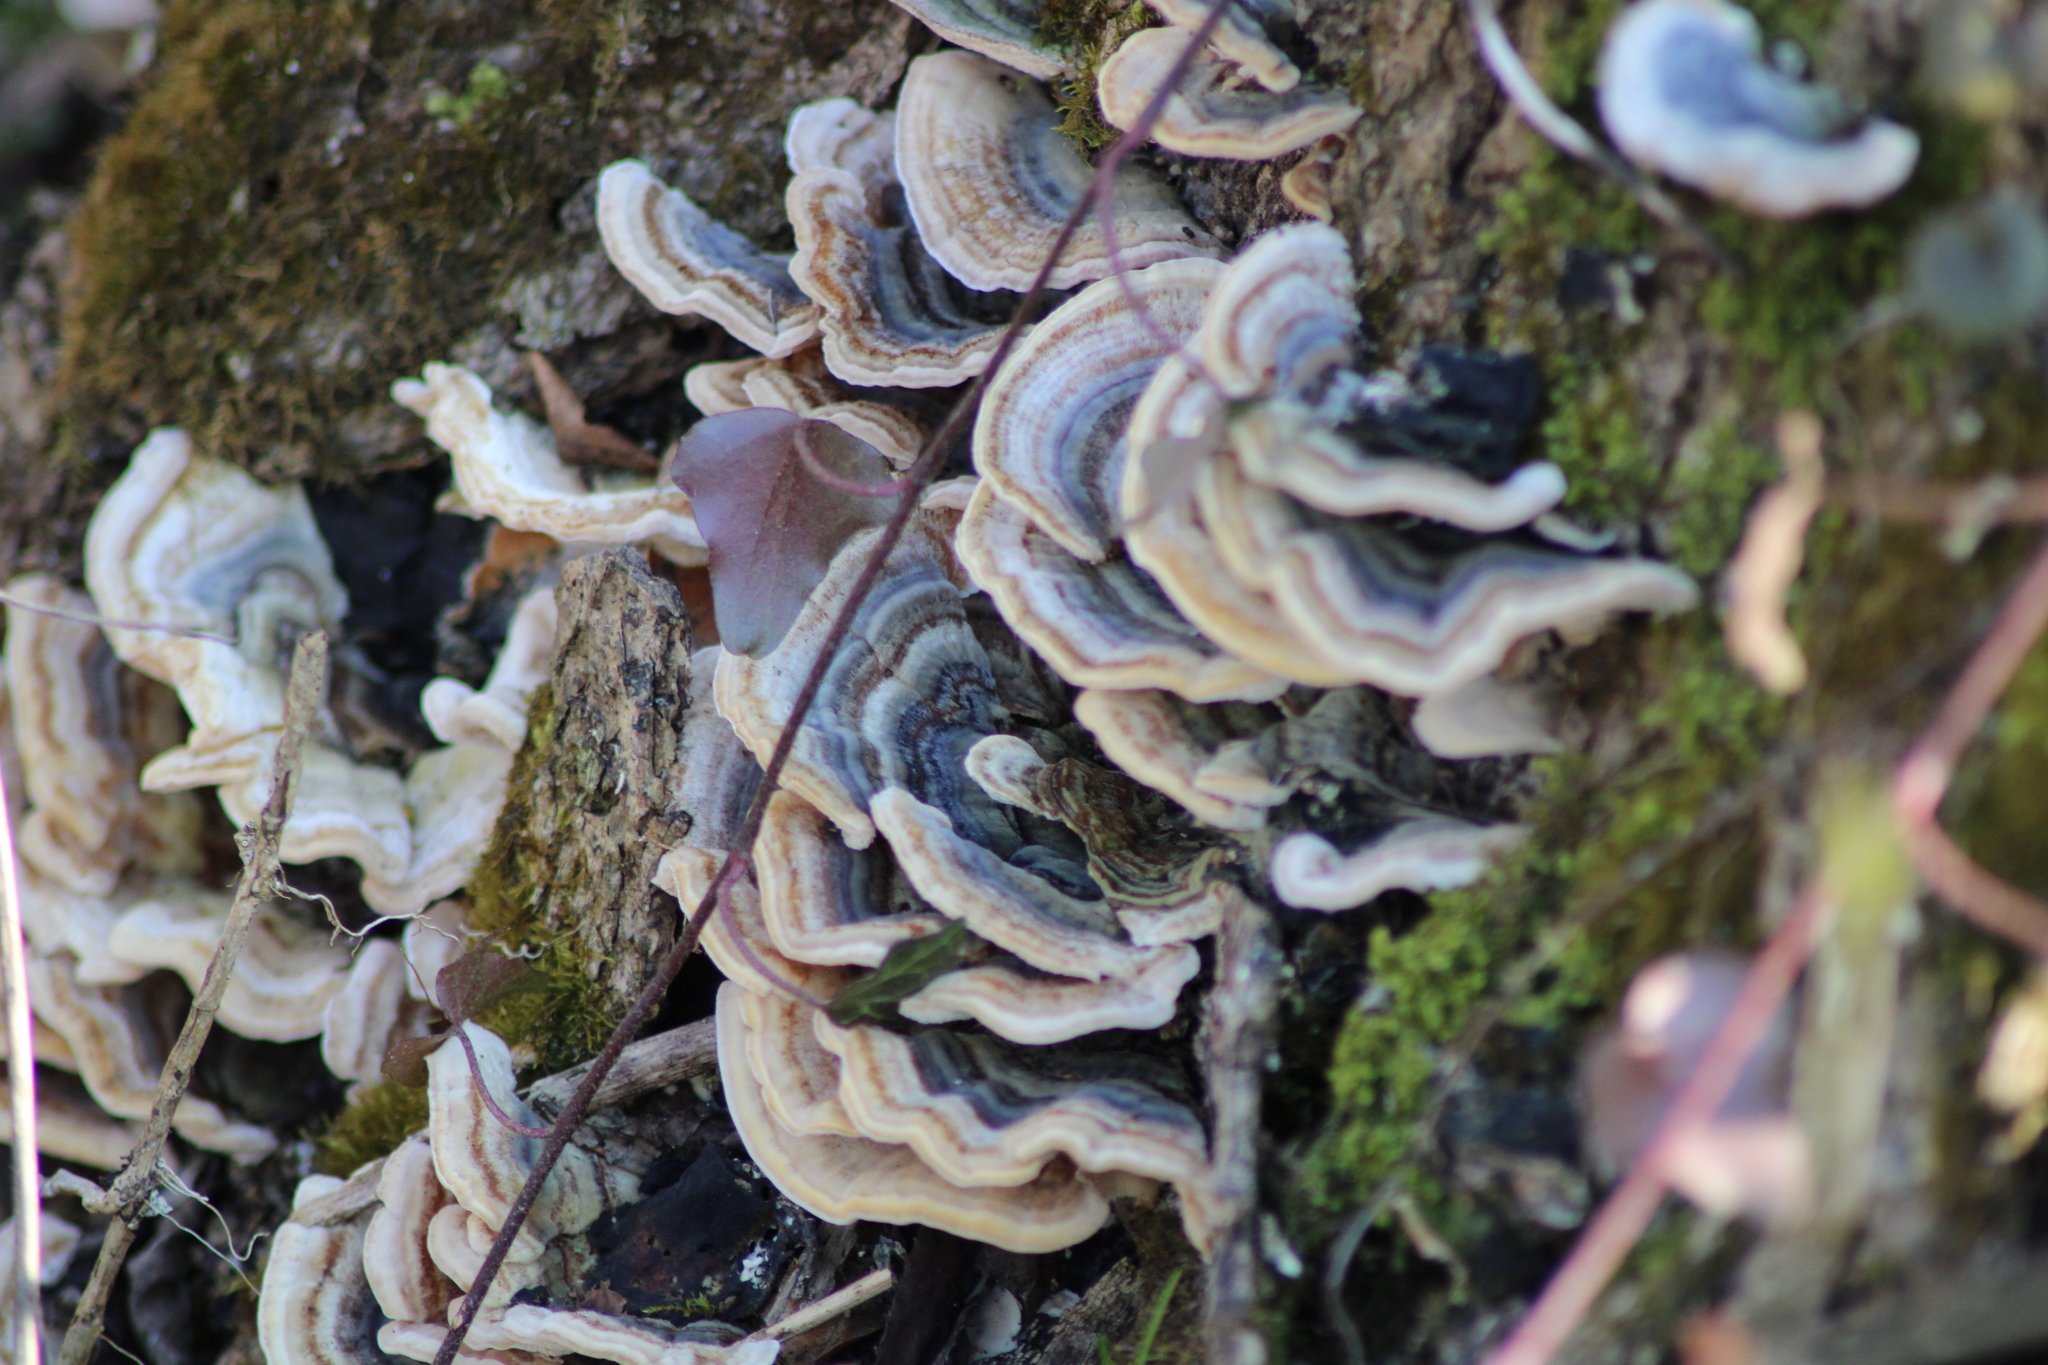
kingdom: Fungi
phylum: Basidiomycota
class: Agaricomycetes
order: Polyporales
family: Polyporaceae
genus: Trametes
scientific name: Trametes versicolor
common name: Turkeytail
